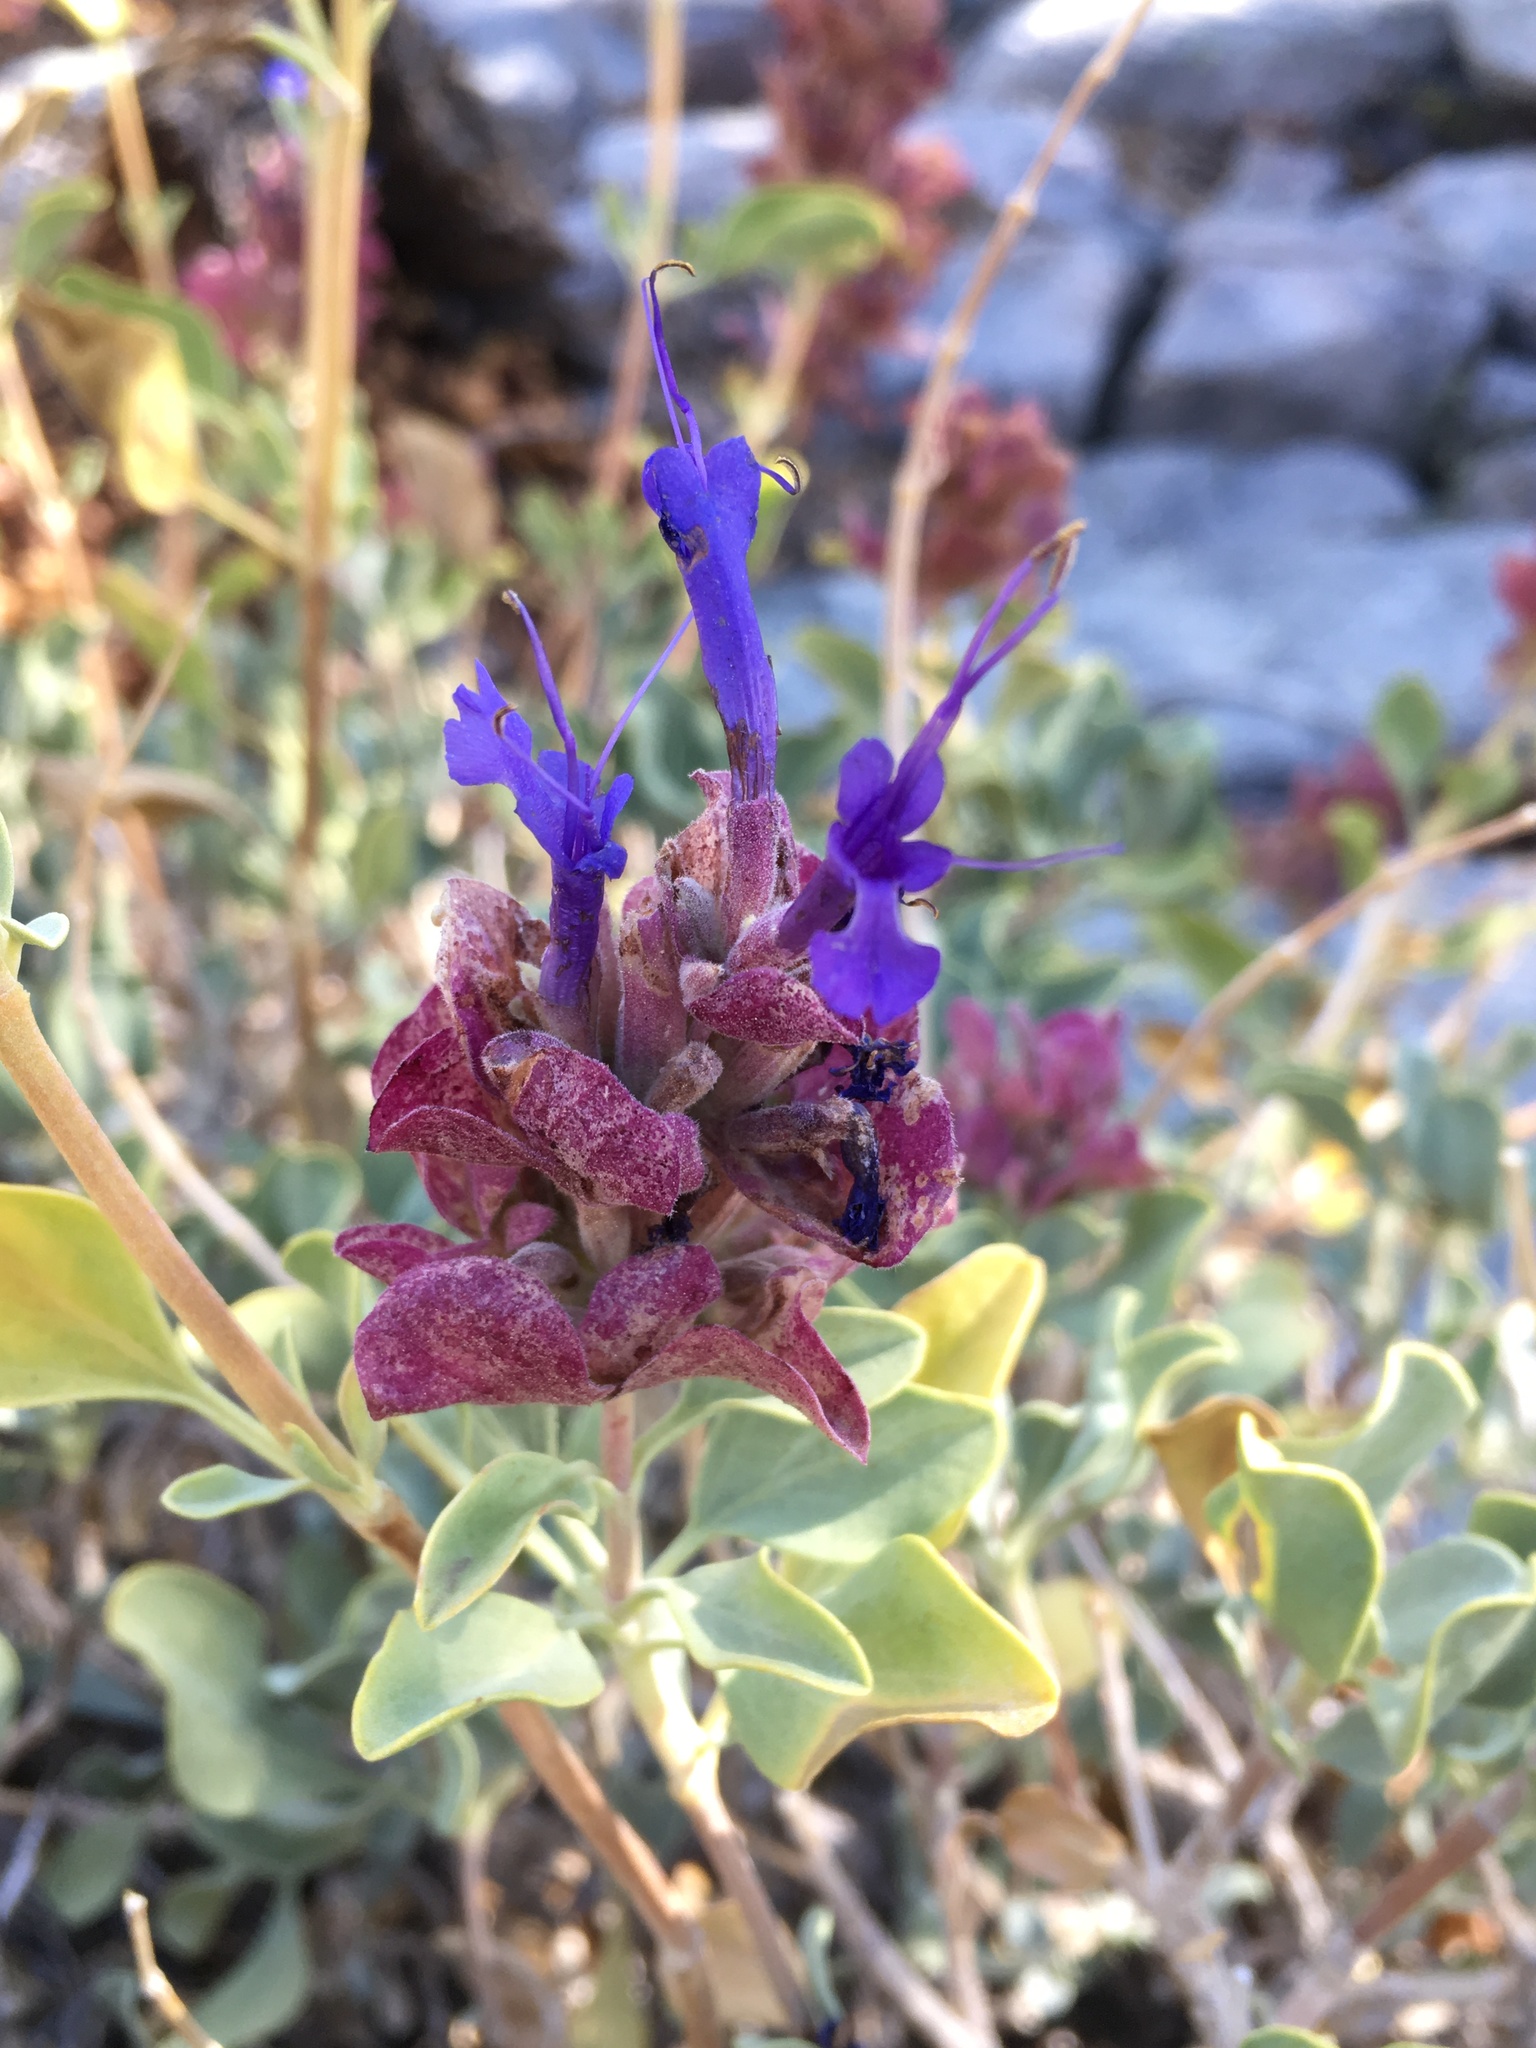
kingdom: Plantae
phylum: Tracheophyta
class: Magnoliopsida
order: Lamiales
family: Lamiaceae
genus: Salvia
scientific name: Salvia pachyphylla
